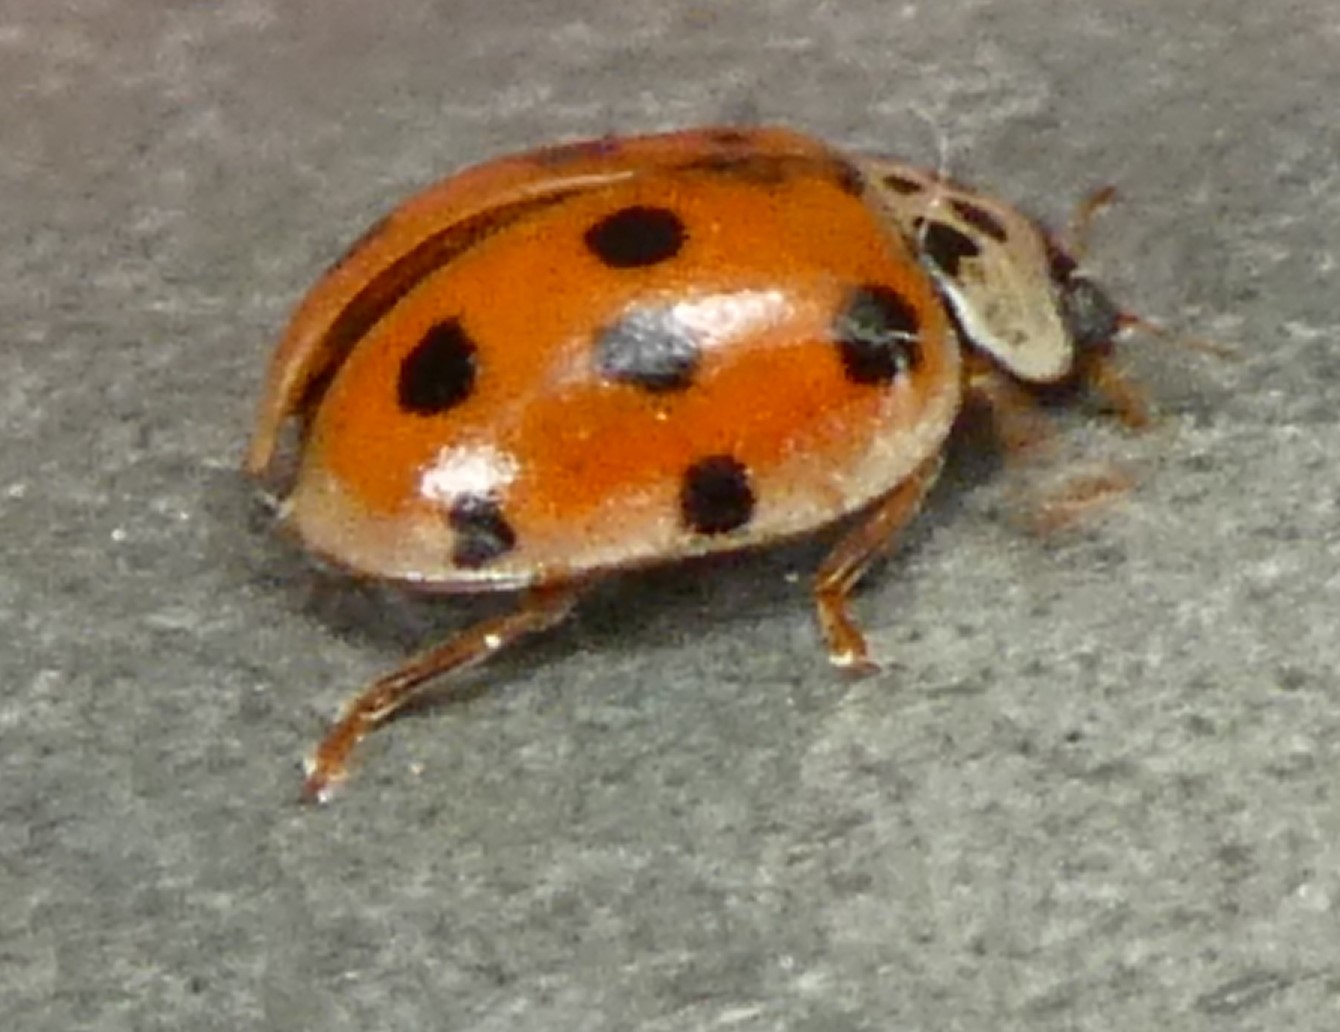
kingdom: Animalia
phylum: Arthropoda
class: Insecta
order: Coleoptera
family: Coccinellidae
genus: Adalia
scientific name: Adalia decempunctata
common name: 10-spot ladybird
